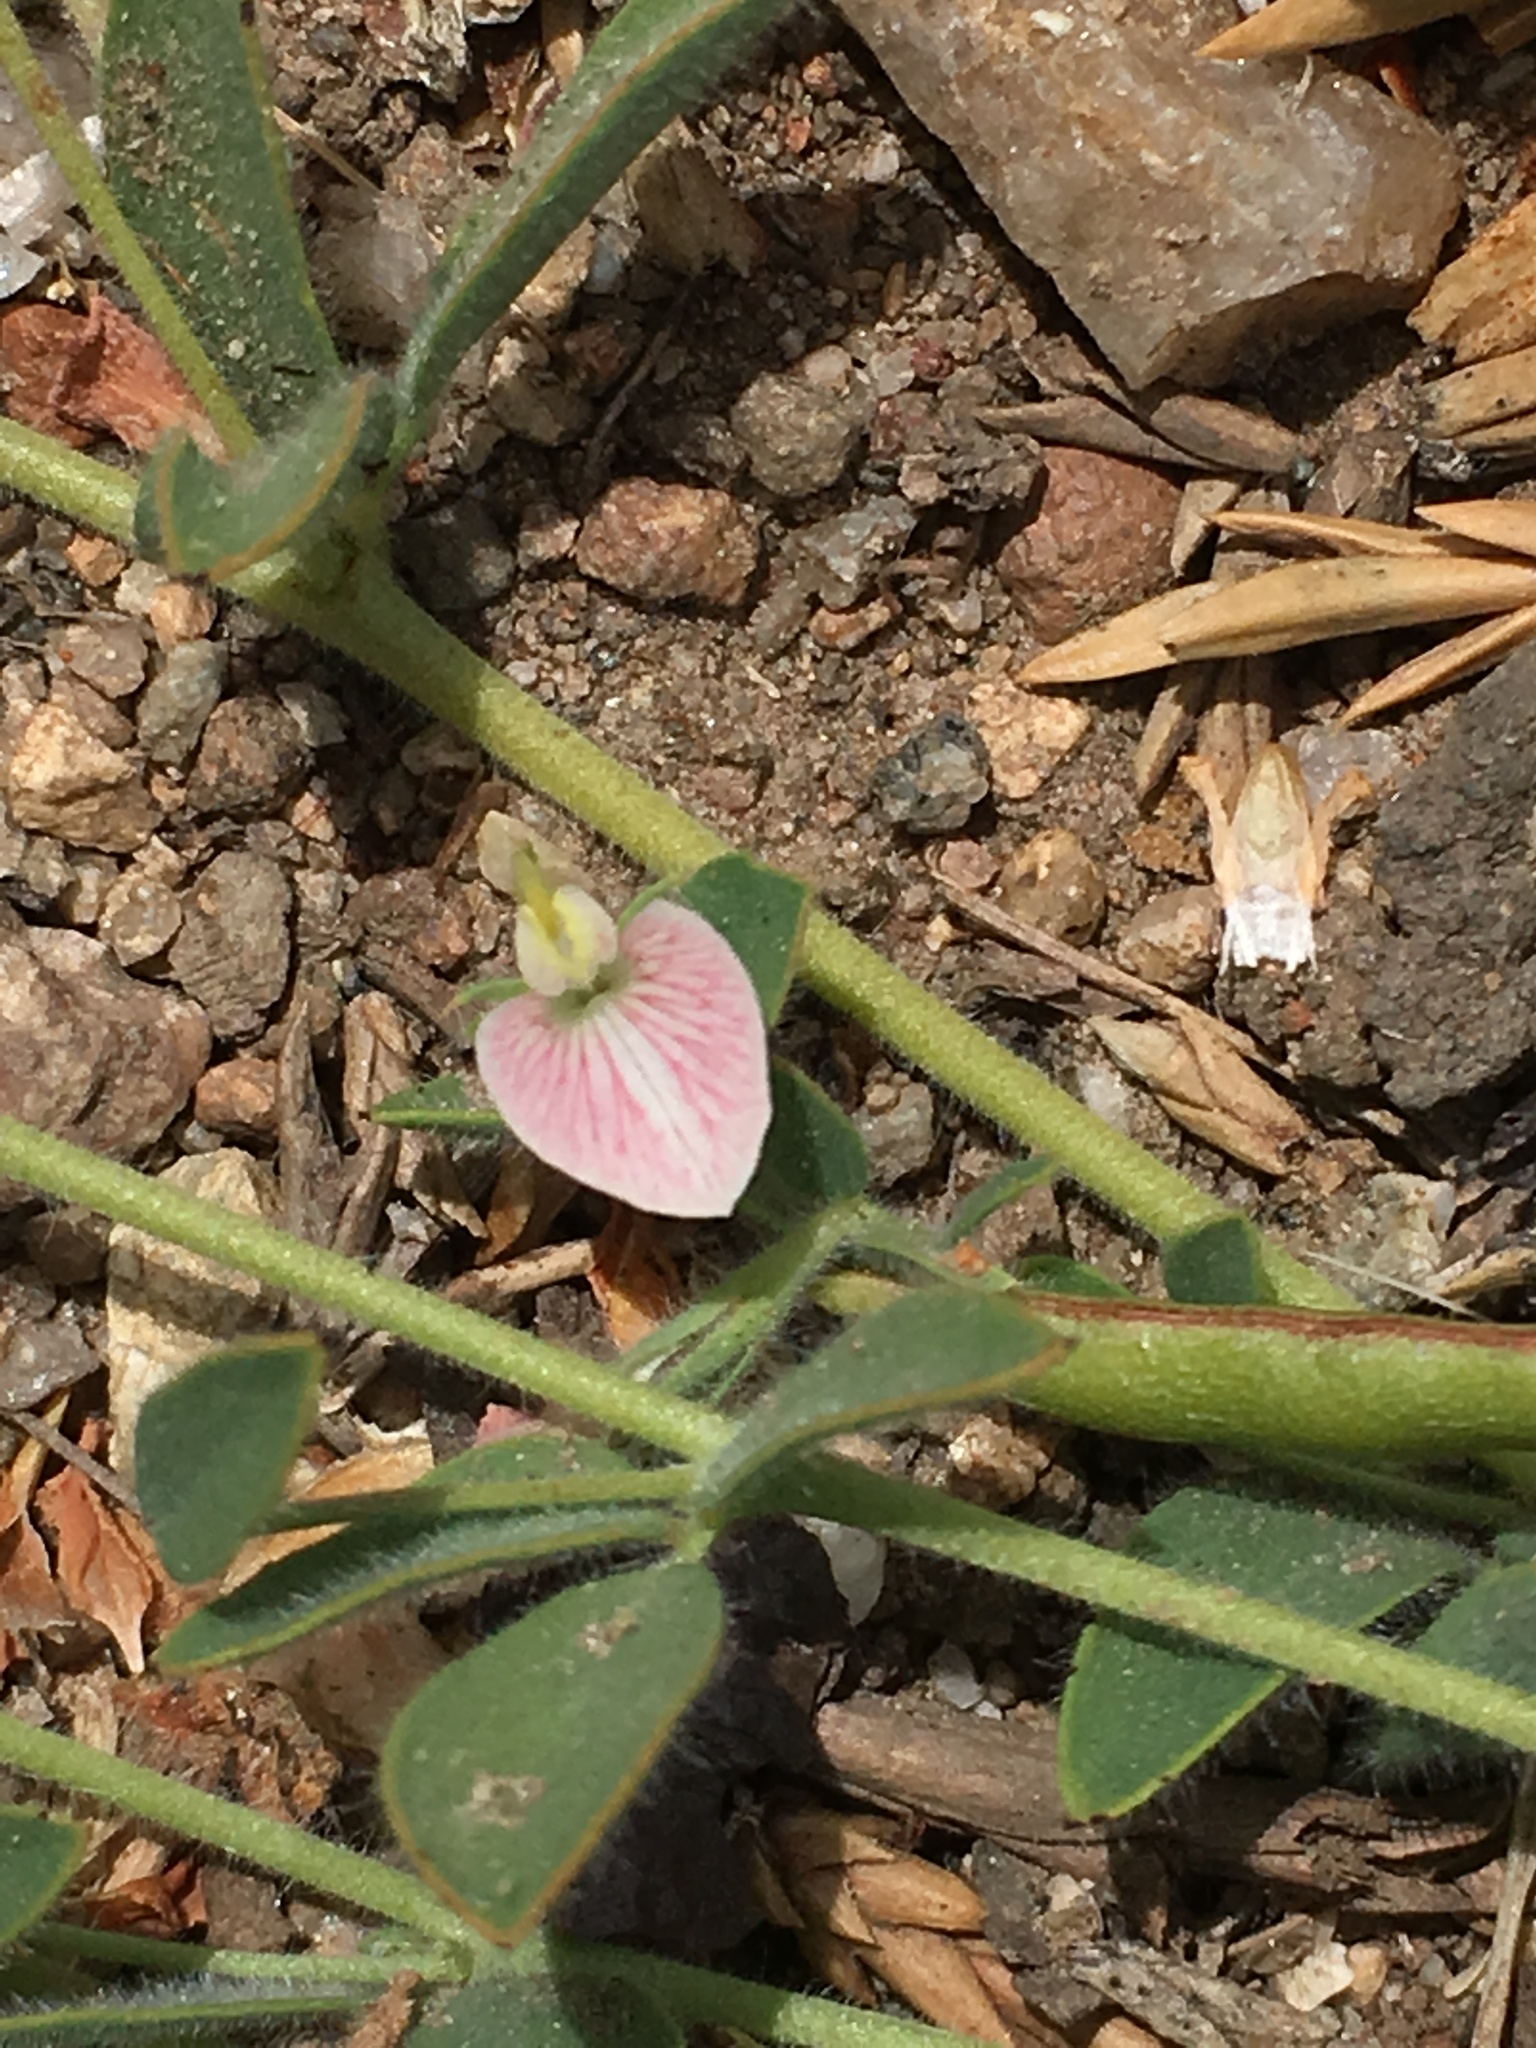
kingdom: Plantae
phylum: Tracheophyta
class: Magnoliopsida
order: Fabales
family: Fabaceae
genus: Acmispon
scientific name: Acmispon americanus
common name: American bird's-foot trefoil
